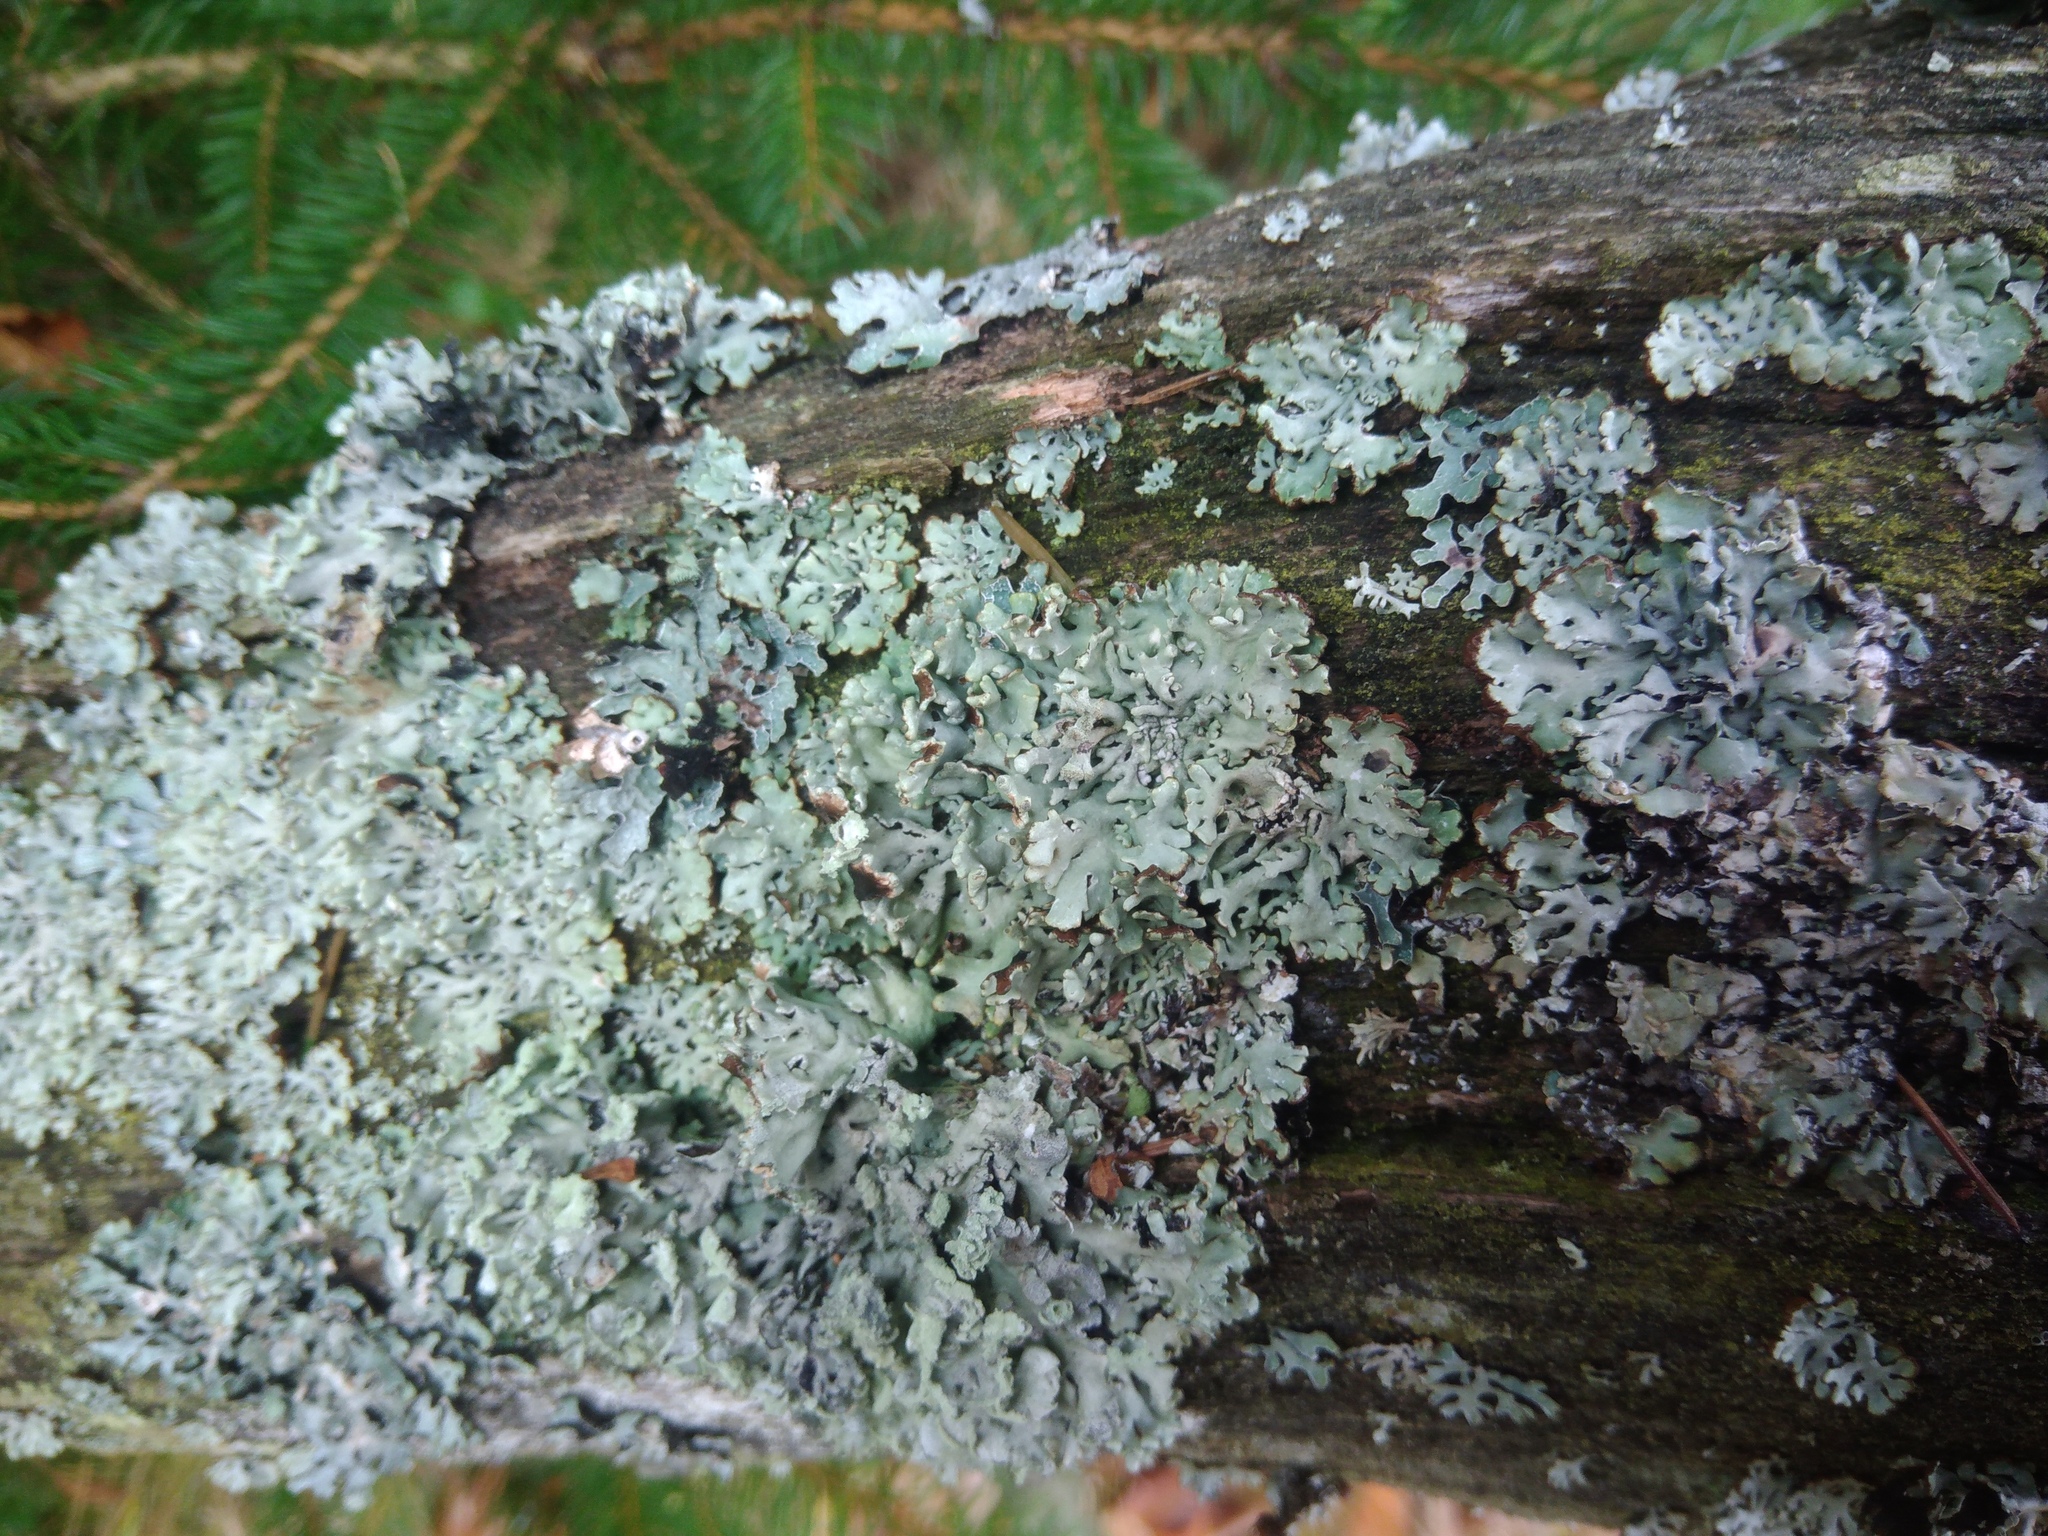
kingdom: Fungi
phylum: Ascomycota
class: Lecanoromycetes
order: Lecanorales
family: Parmeliaceae
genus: Hypogymnia
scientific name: Hypogymnia physodes
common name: Dark crottle
